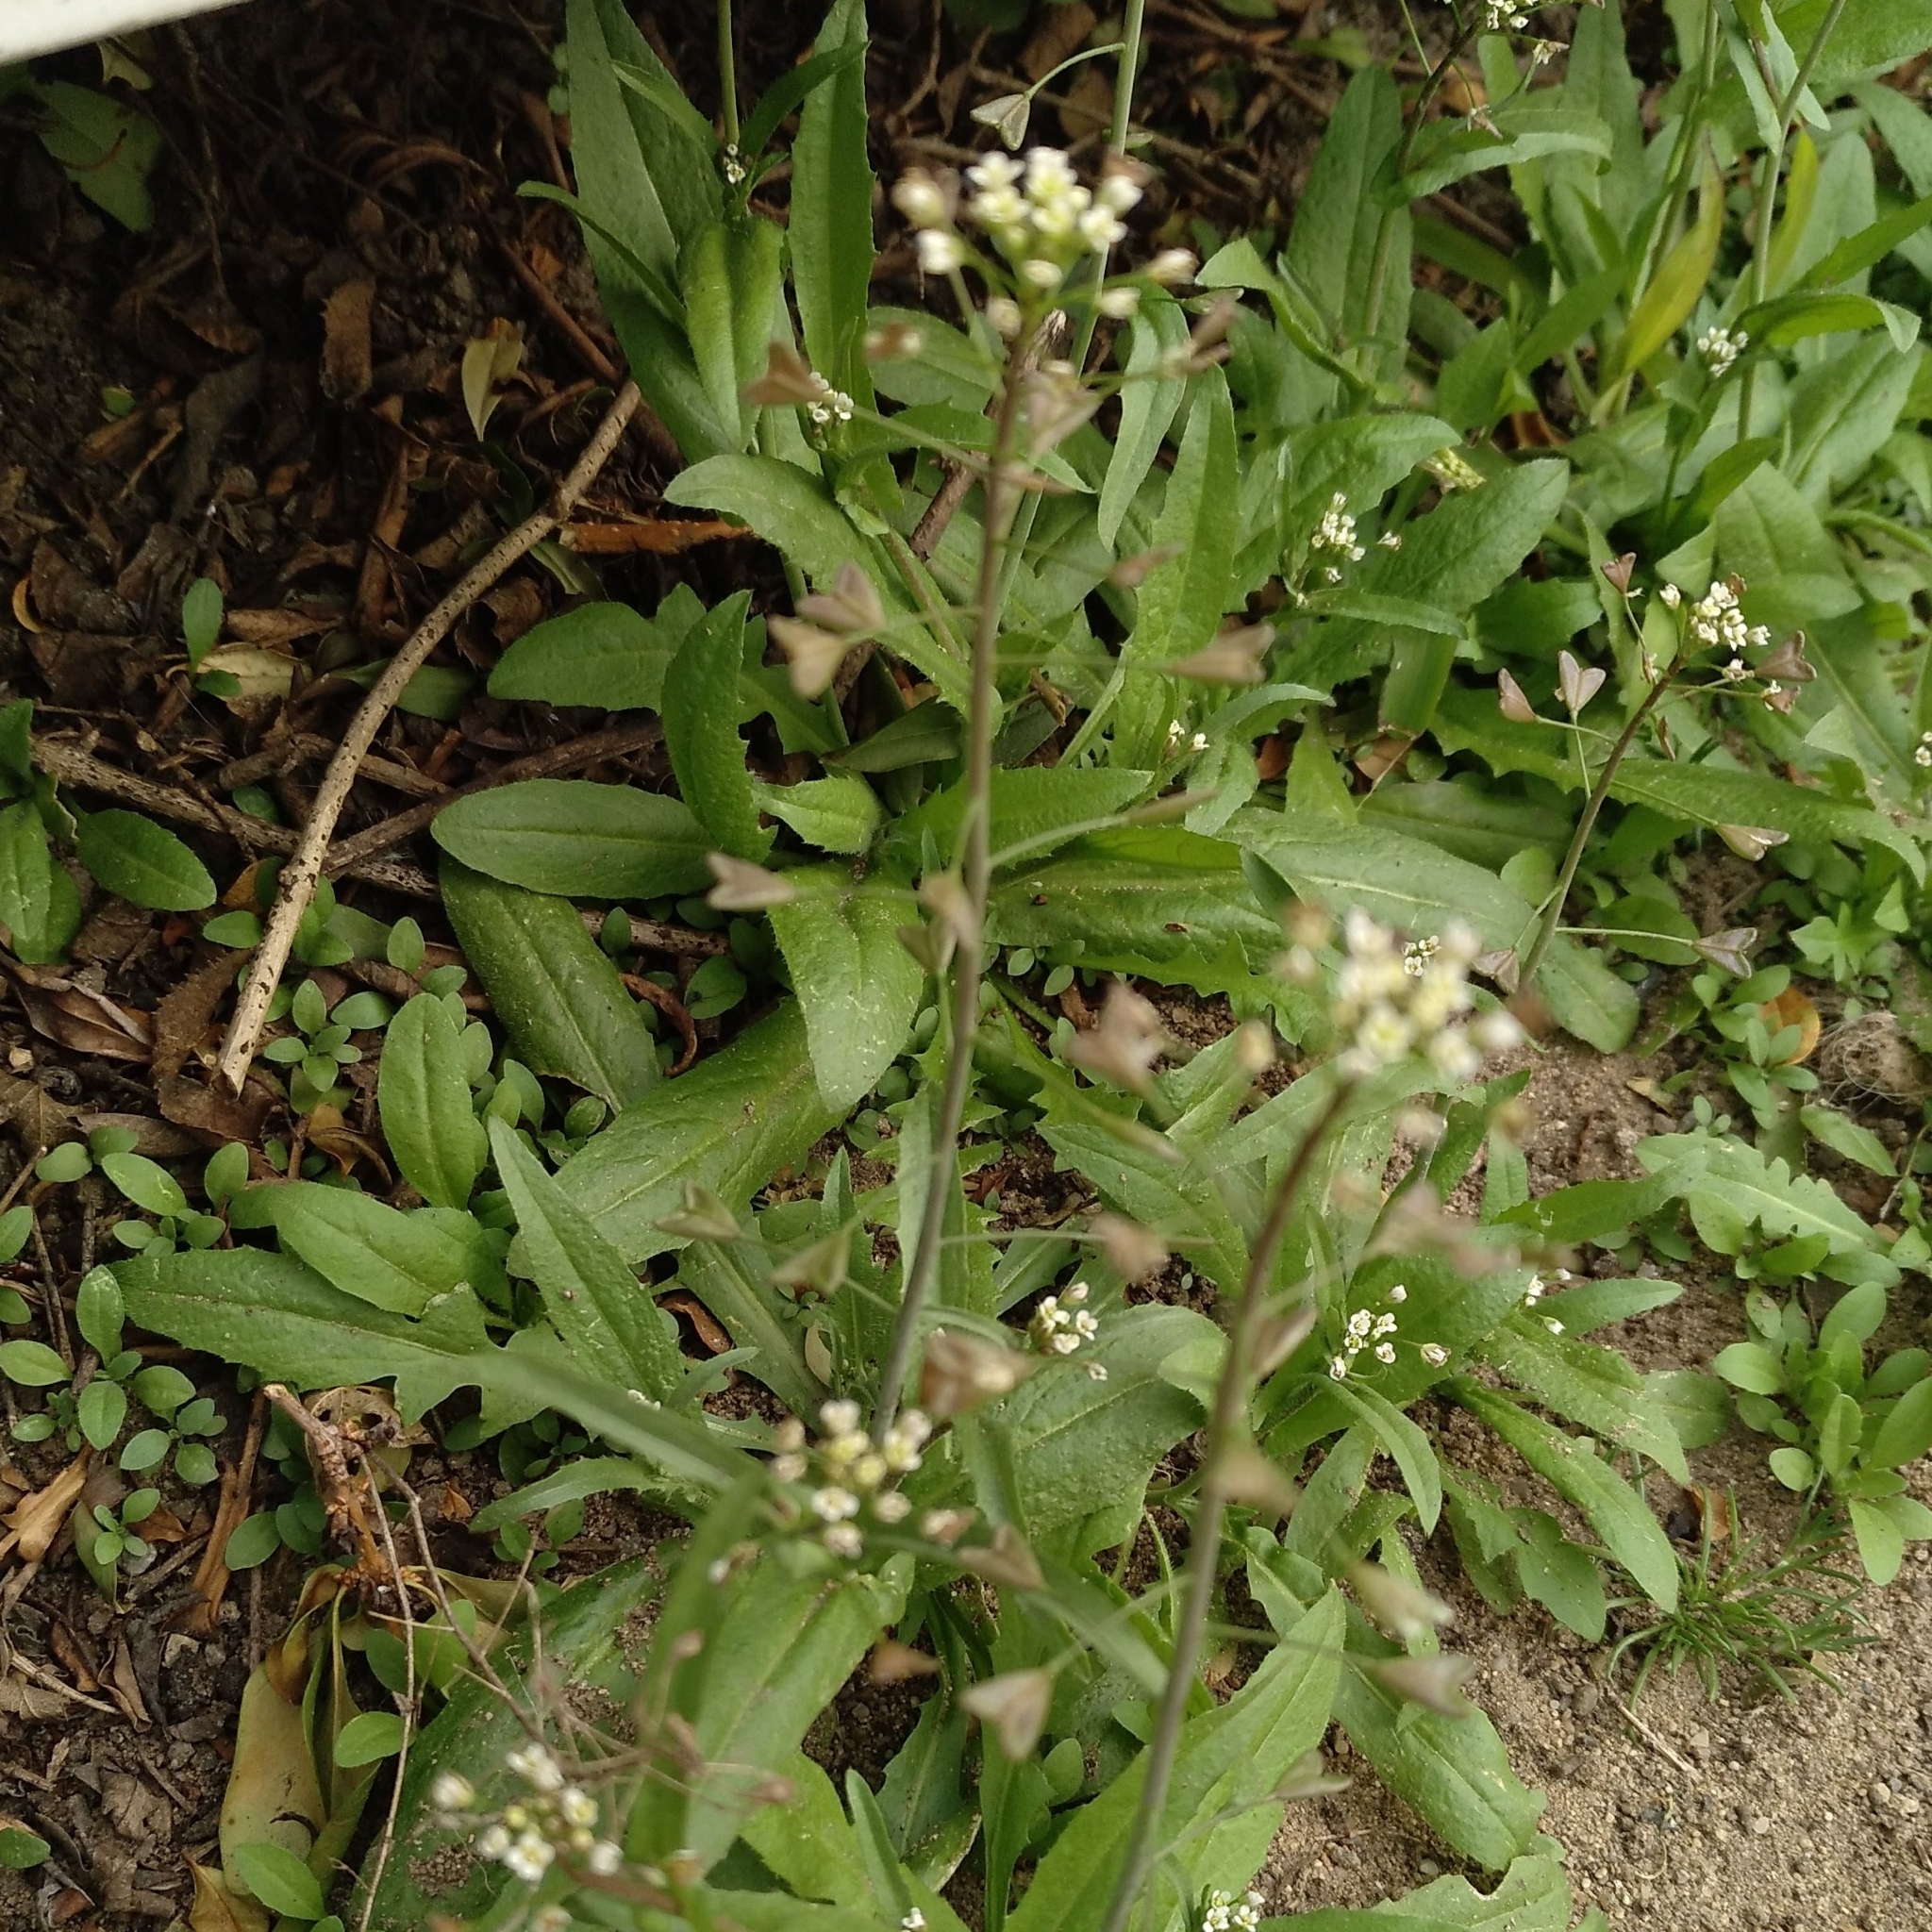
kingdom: Plantae
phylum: Tracheophyta
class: Magnoliopsida
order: Brassicales
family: Brassicaceae
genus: Capsella
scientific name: Capsella bursa-pastoris
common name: Shepherd's purse
